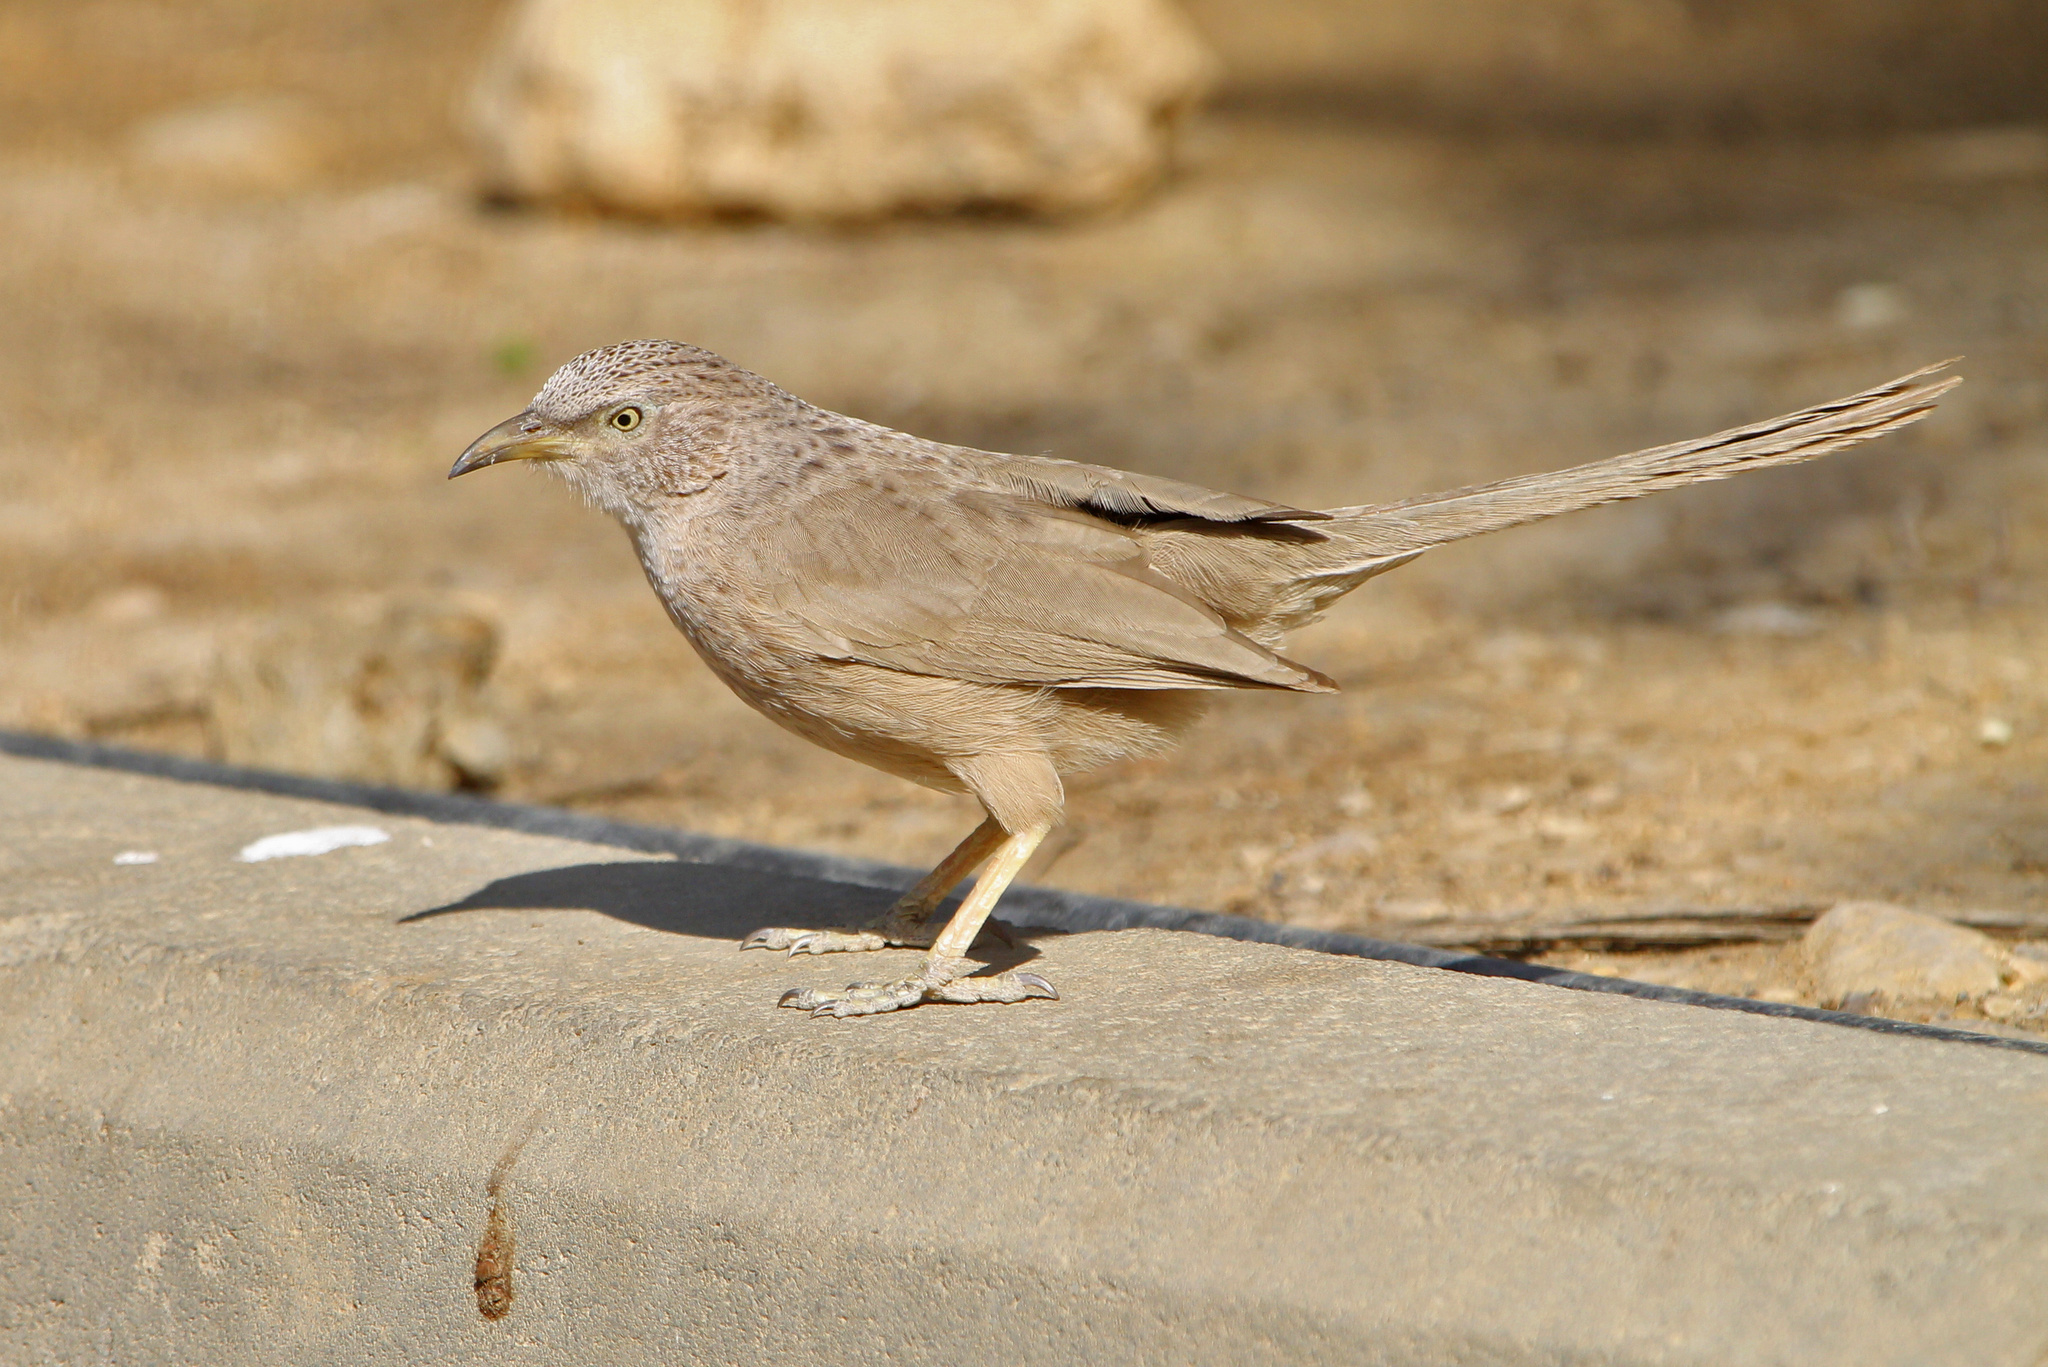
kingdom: Animalia
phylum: Chordata
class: Aves
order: Passeriformes
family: Leiothrichidae
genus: Turdoides
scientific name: Turdoides squamiceps
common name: Arabian babbler
